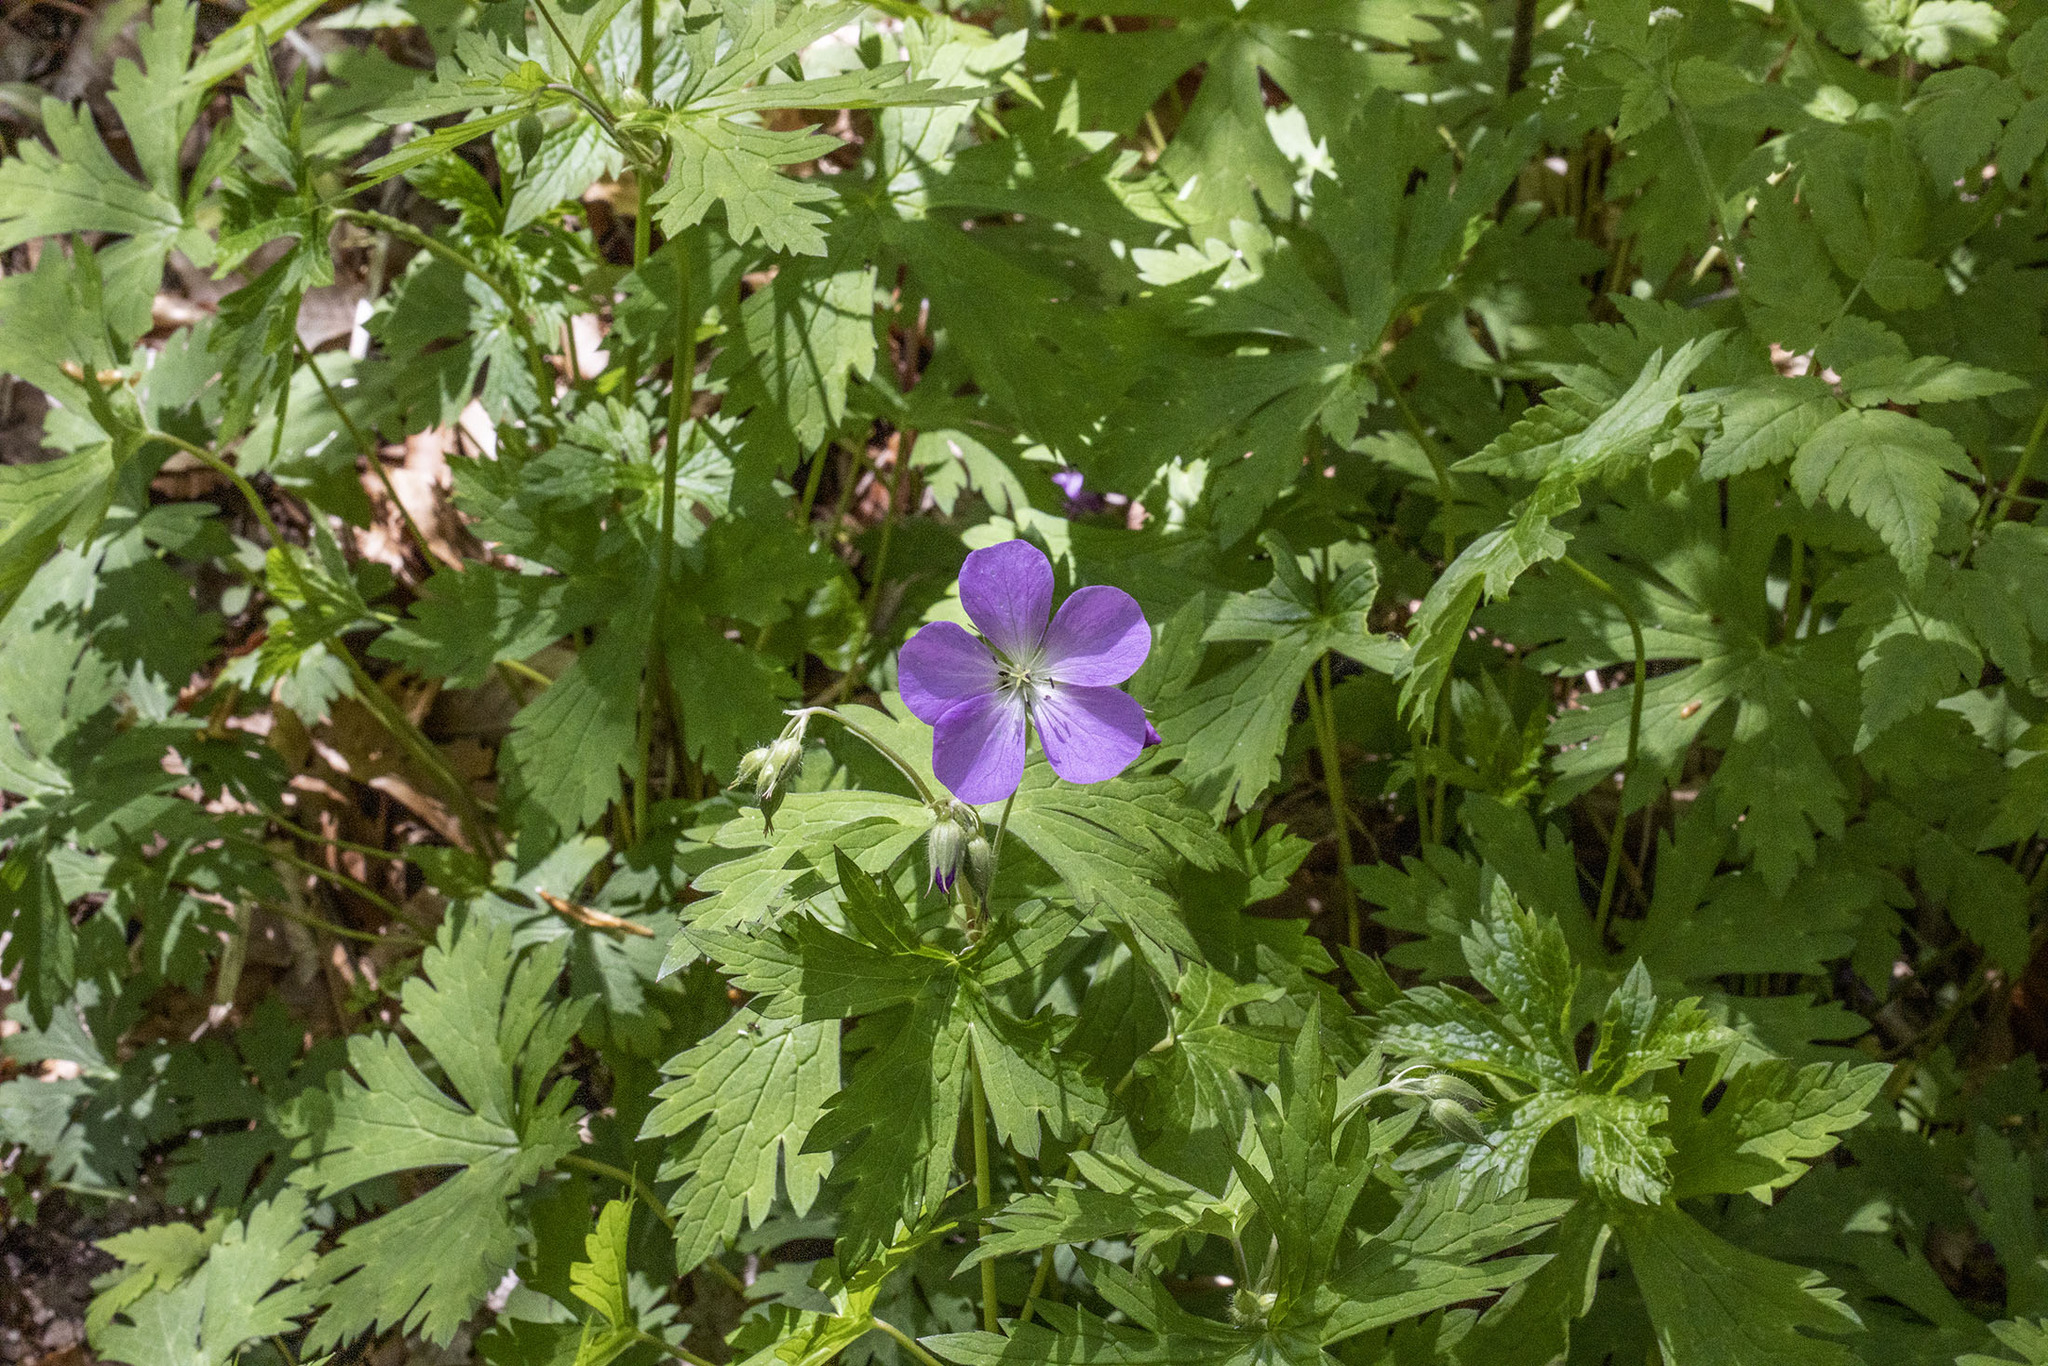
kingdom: Plantae
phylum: Tracheophyta
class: Magnoliopsida
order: Geraniales
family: Geraniaceae
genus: Geranium
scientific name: Geranium maculatum
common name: Spotted geranium
